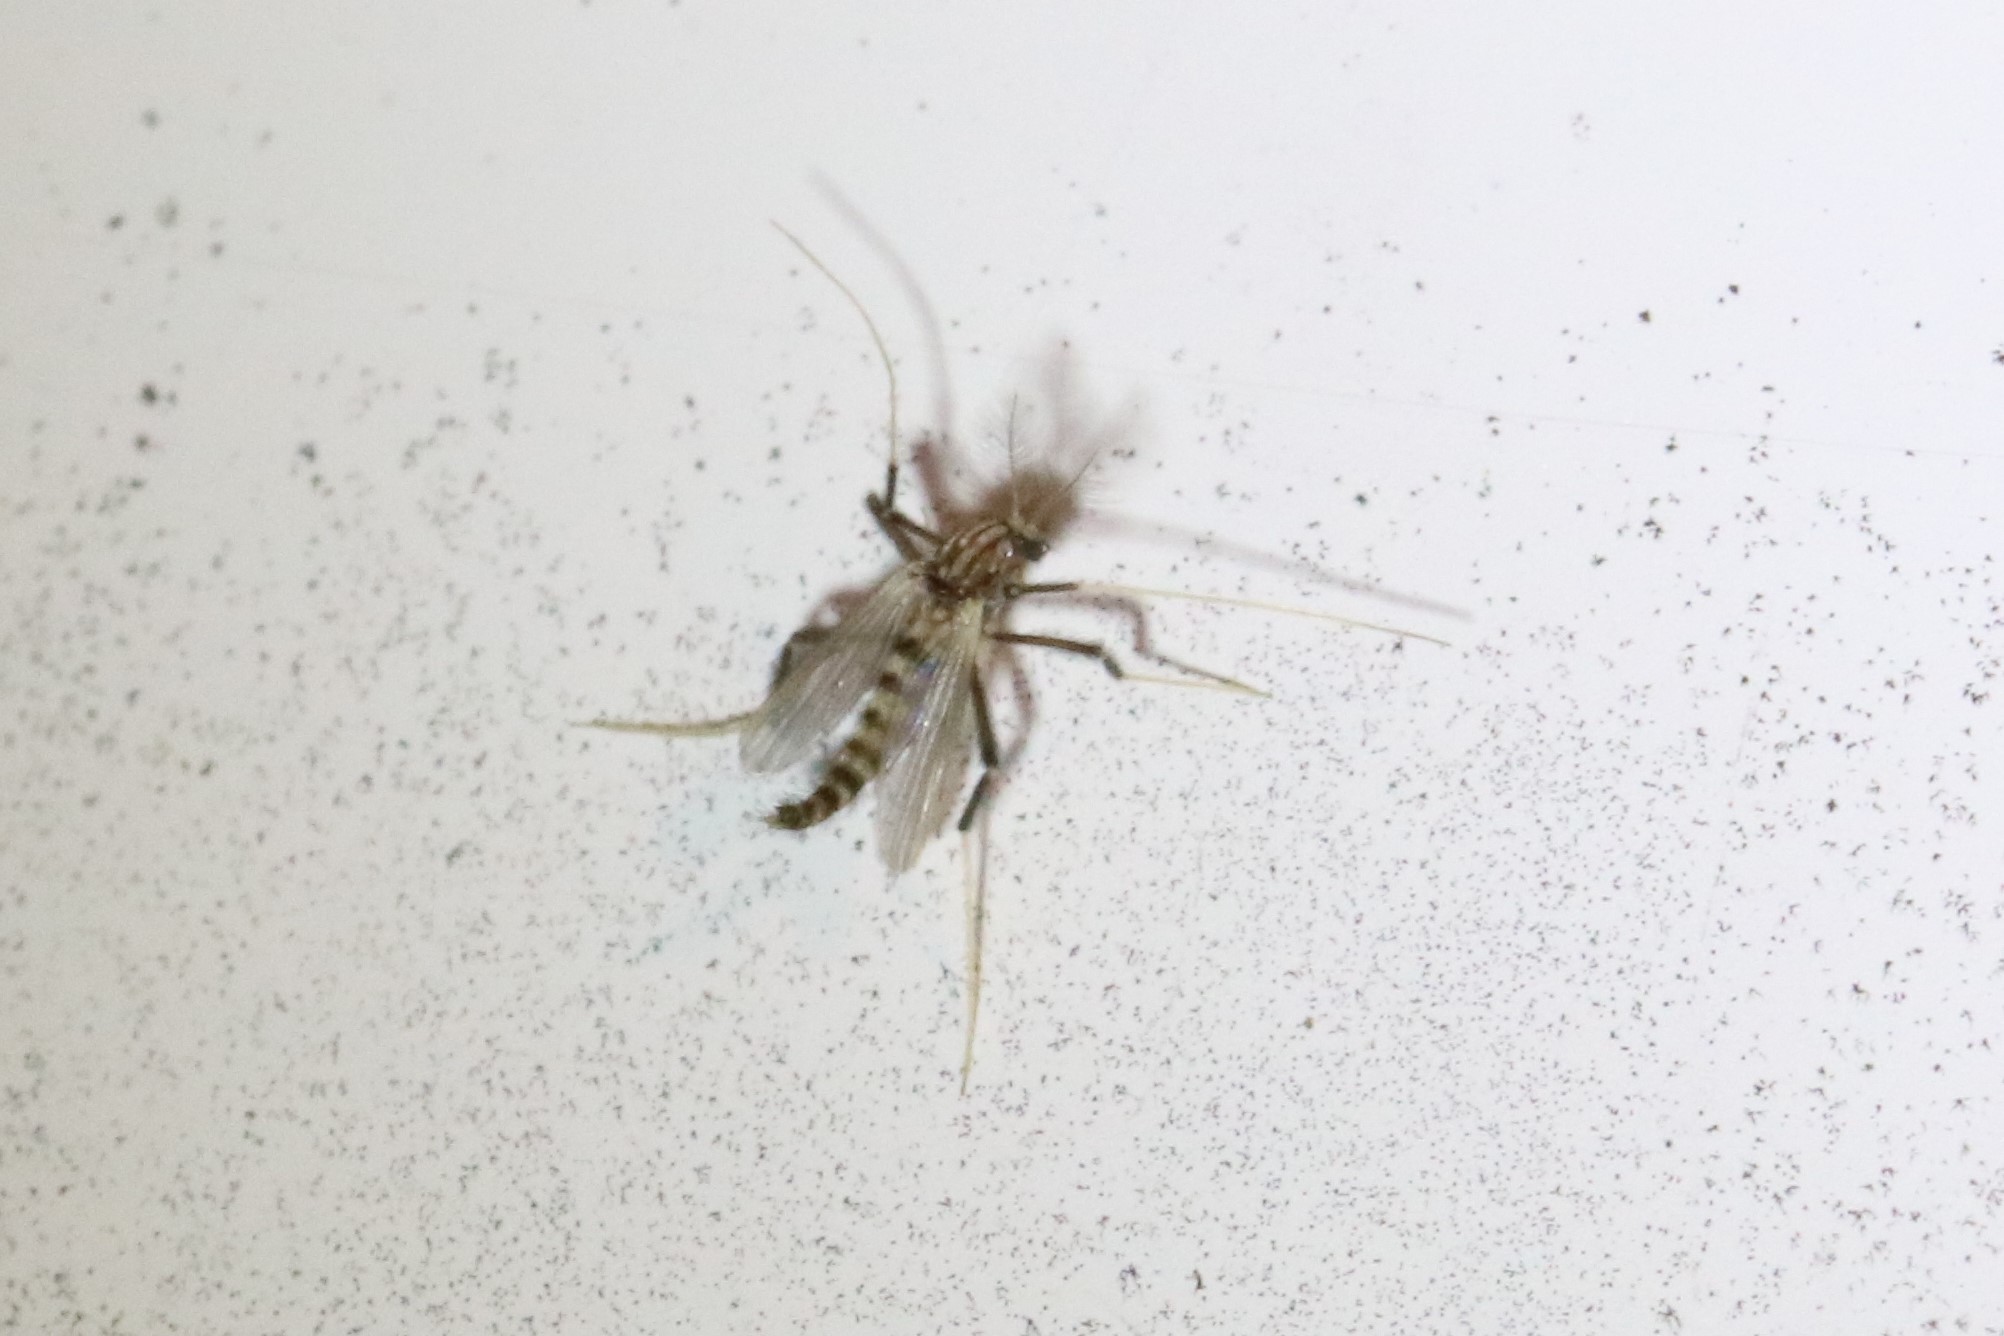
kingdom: Animalia
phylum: Arthropoda
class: Insecta
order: Diptera
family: Chironomidae
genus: Polypedilum
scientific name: Polypedilum ontario
